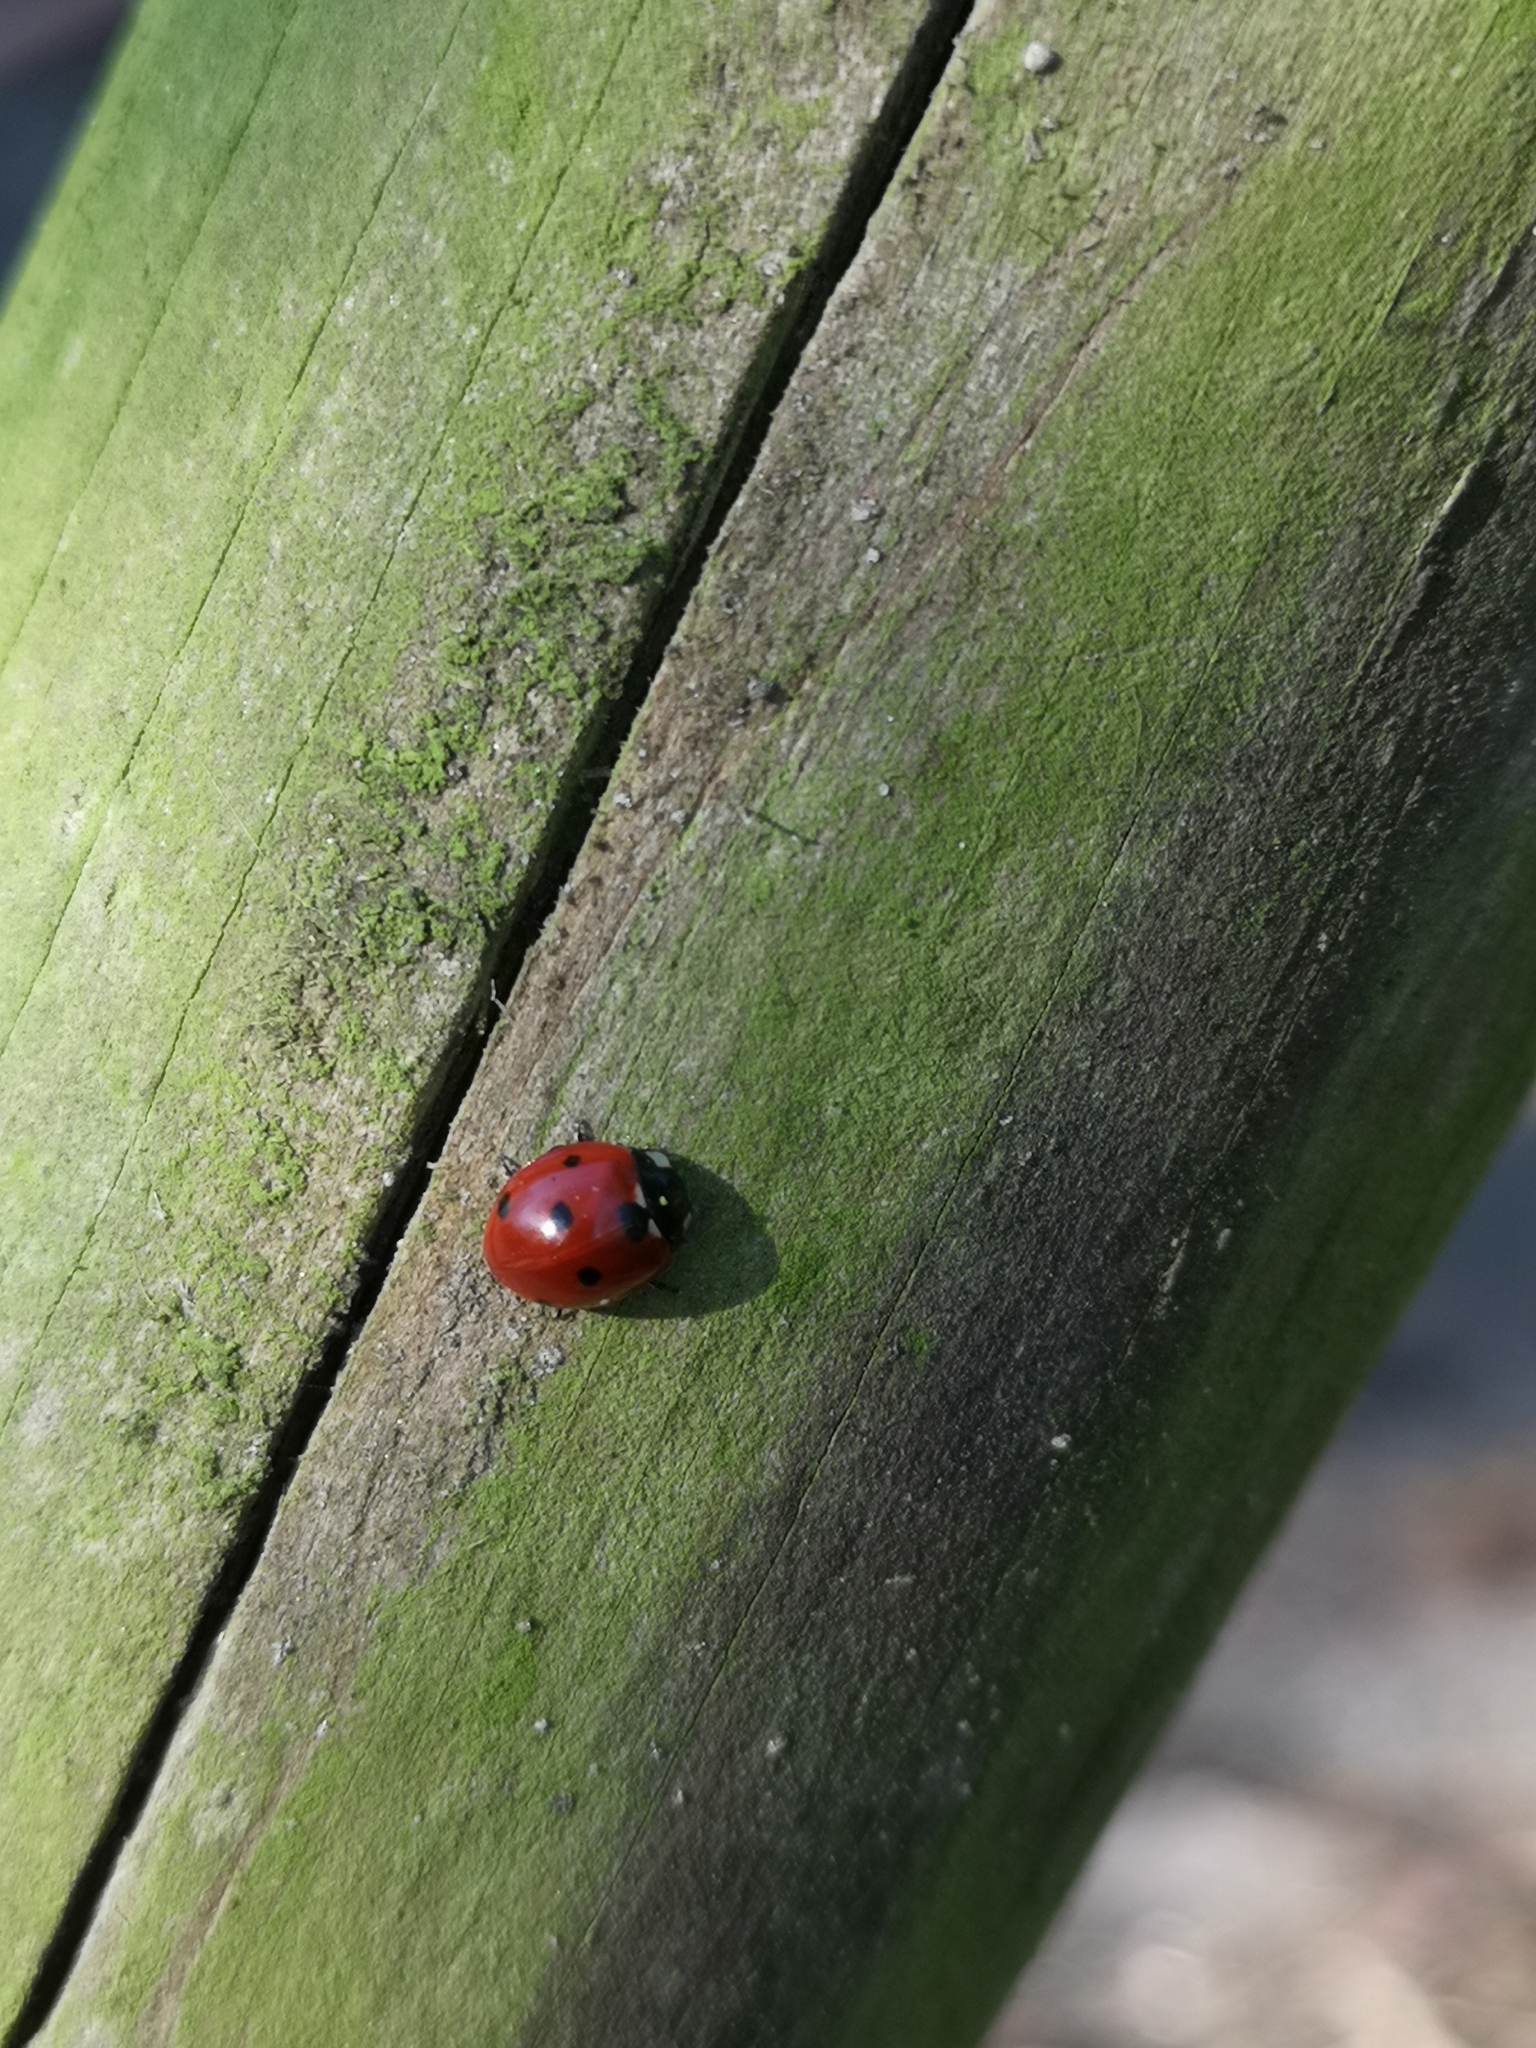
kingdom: Animalia
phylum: Arthropoda
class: Insecta
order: Coleoptera
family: Coccinellidae
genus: Coccinella
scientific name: Coccinella septempunctata
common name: Sevenspotted lady beetle
